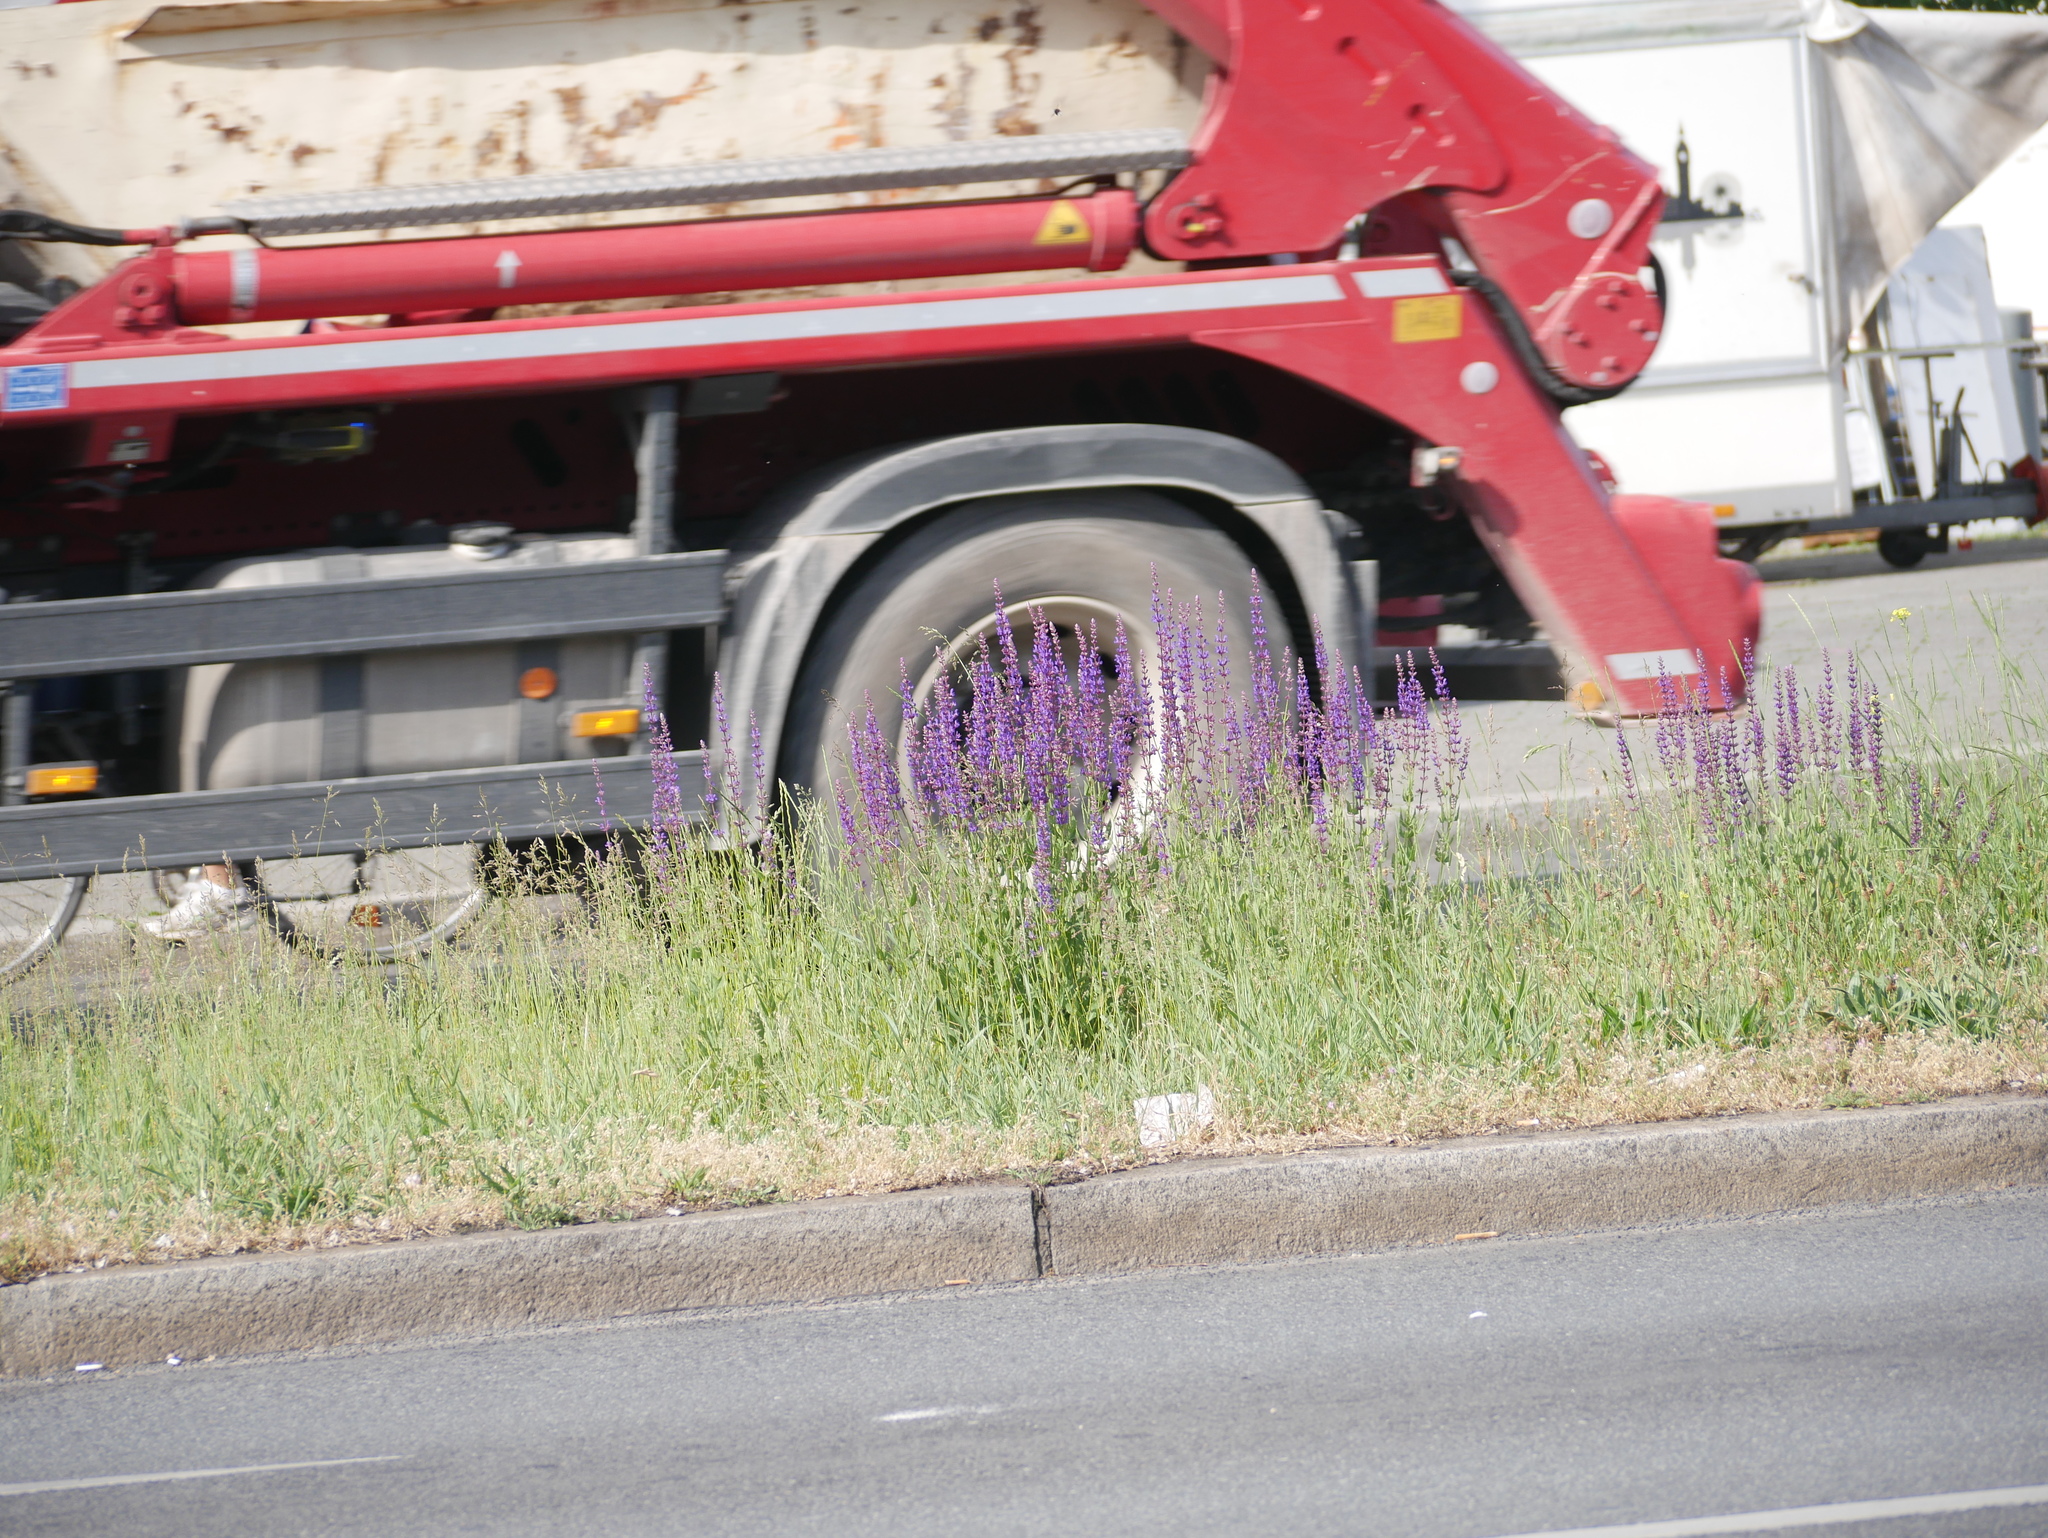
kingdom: Plantae
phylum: Tracheophyta
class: Magnoliopsida
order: Lamiales
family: Lamiaceae
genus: Salvia
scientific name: Salvia pratensis
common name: Meadow sage
